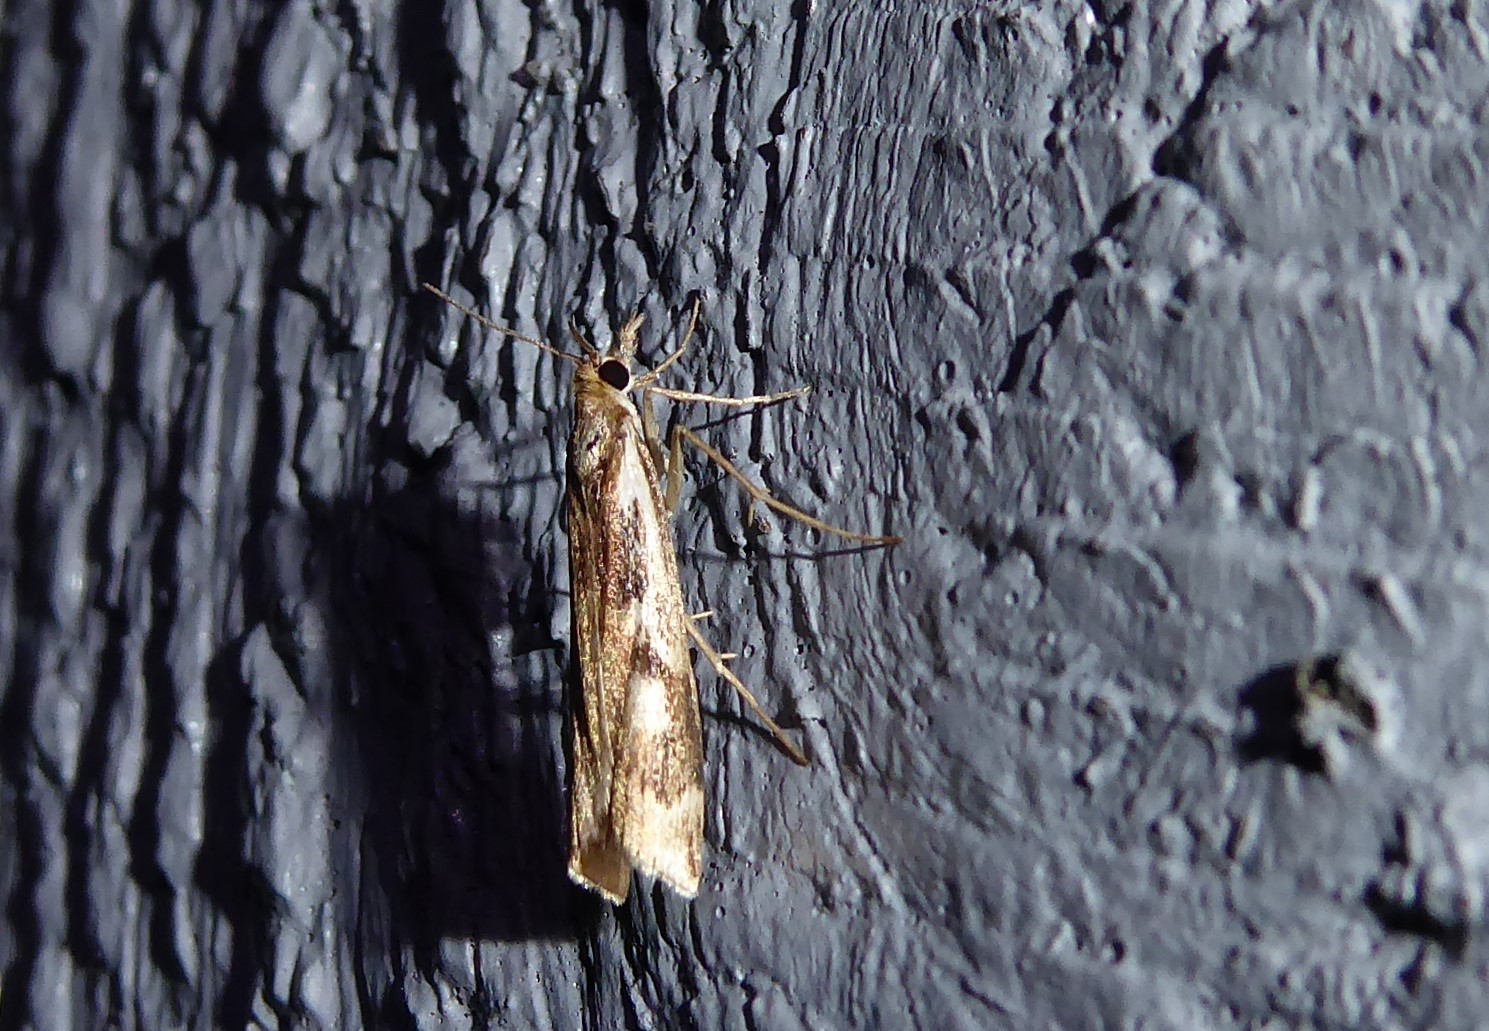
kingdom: Animalia
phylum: Arthropoda
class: Insecta
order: Lepidoptera
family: Crambidae
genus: Orocrambus
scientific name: Orocrambus vulgaris
